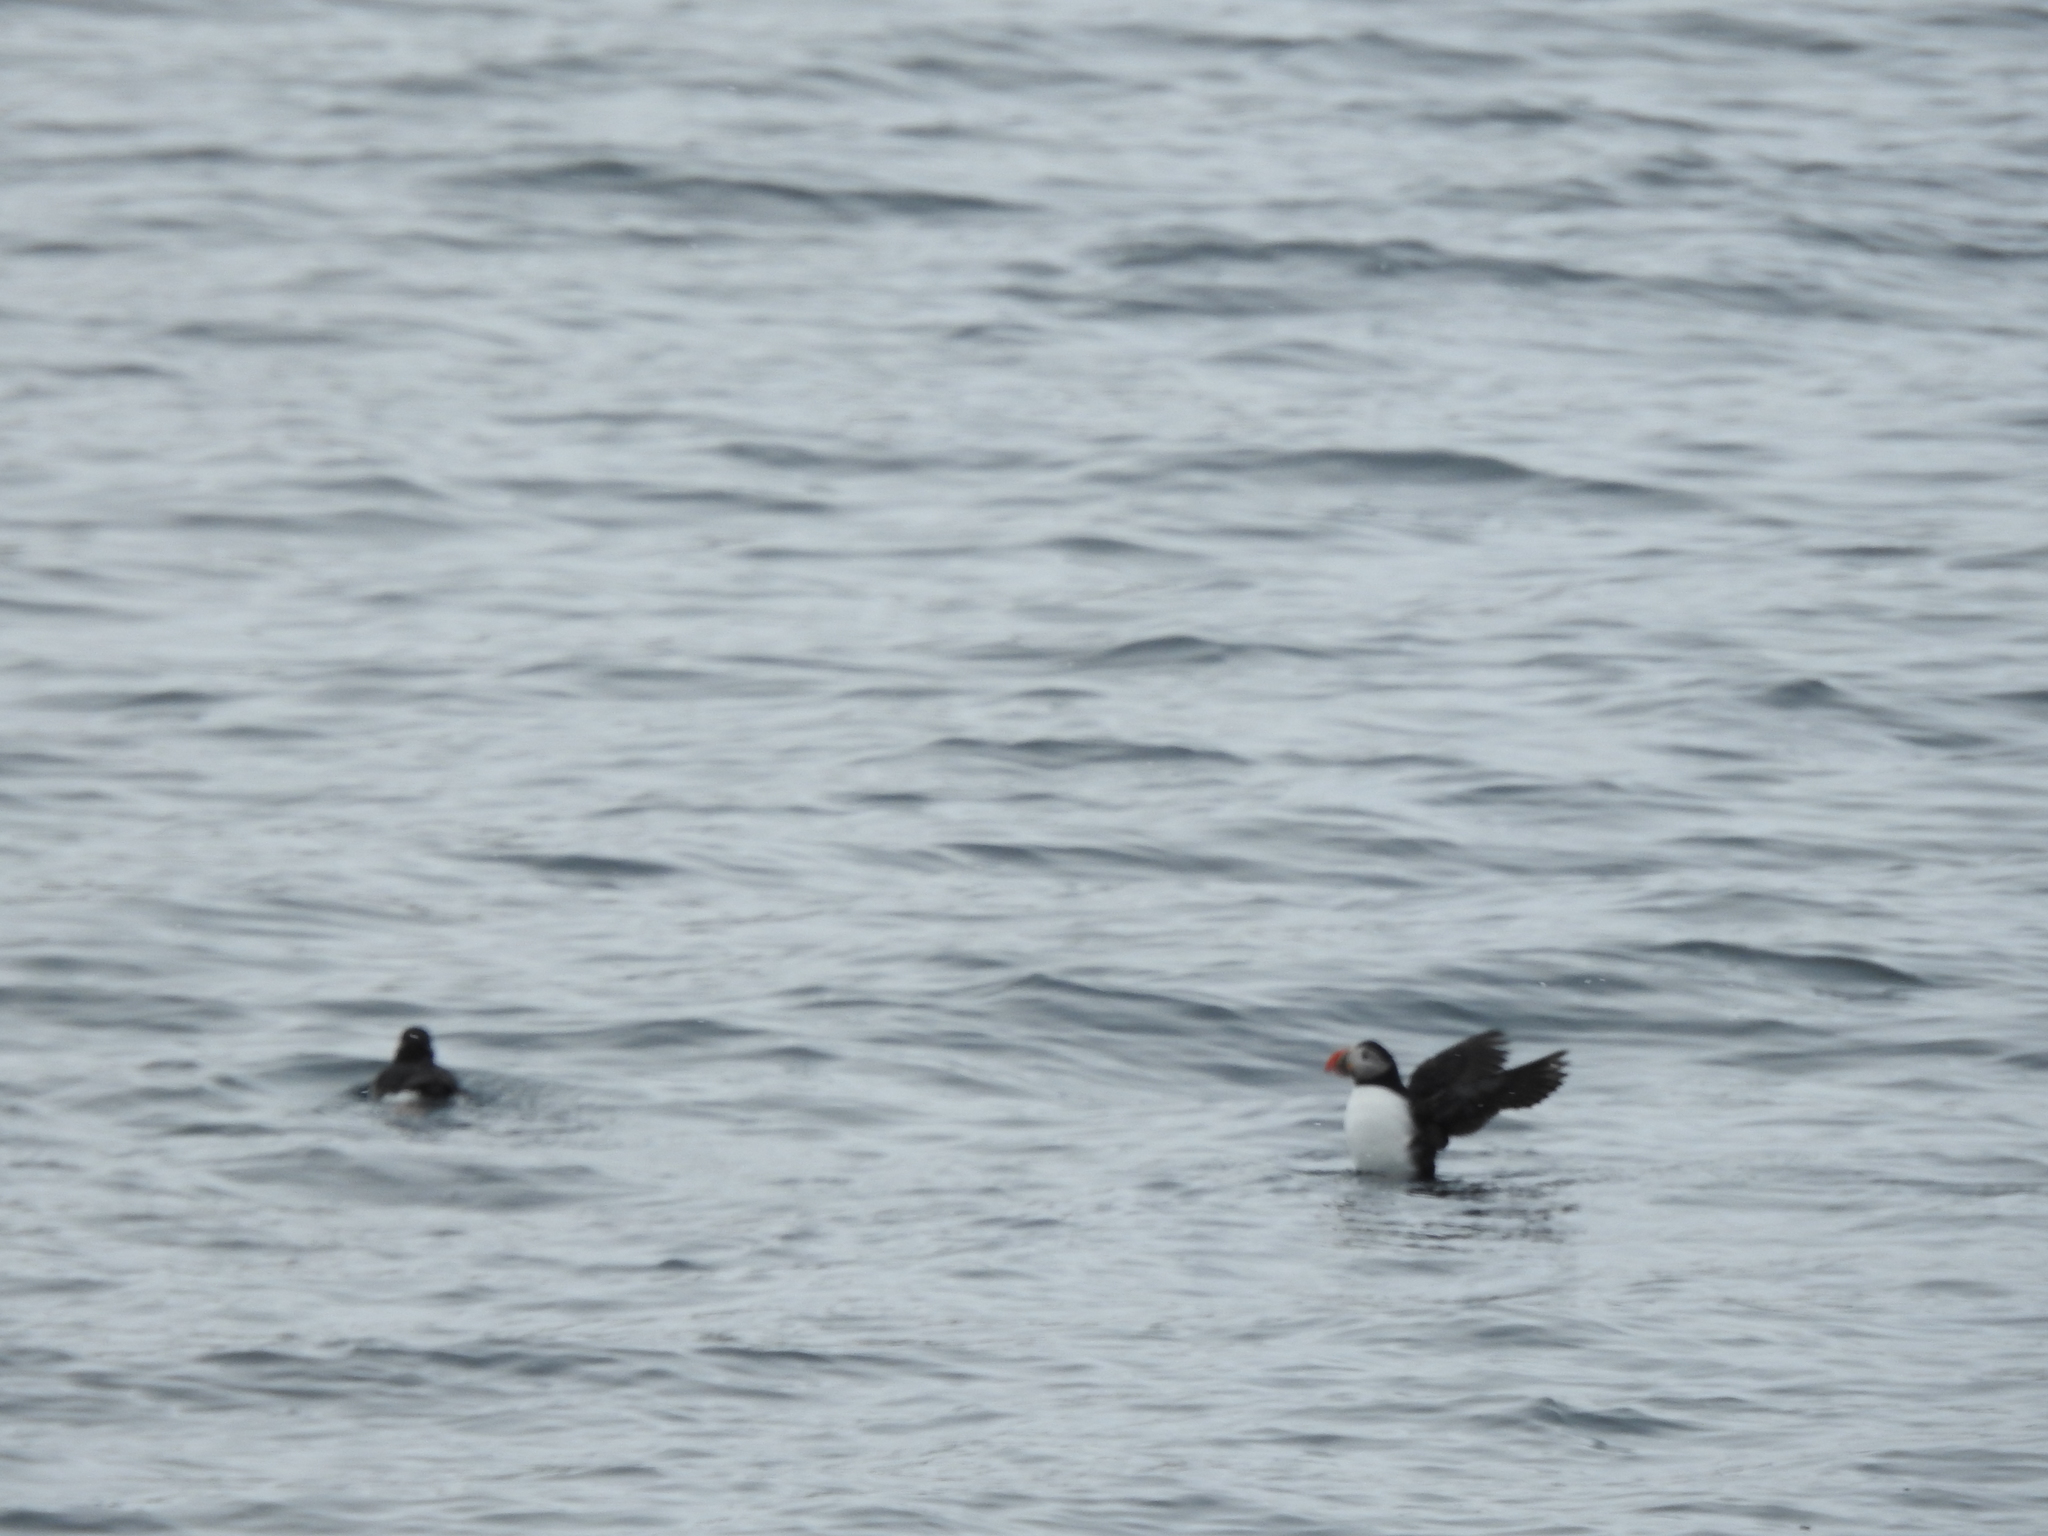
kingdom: Animalia
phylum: Chordata
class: Aves
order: Charadriiformes
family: Alcidae
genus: Fratercula
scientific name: Fratercula arctica
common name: Atlantic puffin
